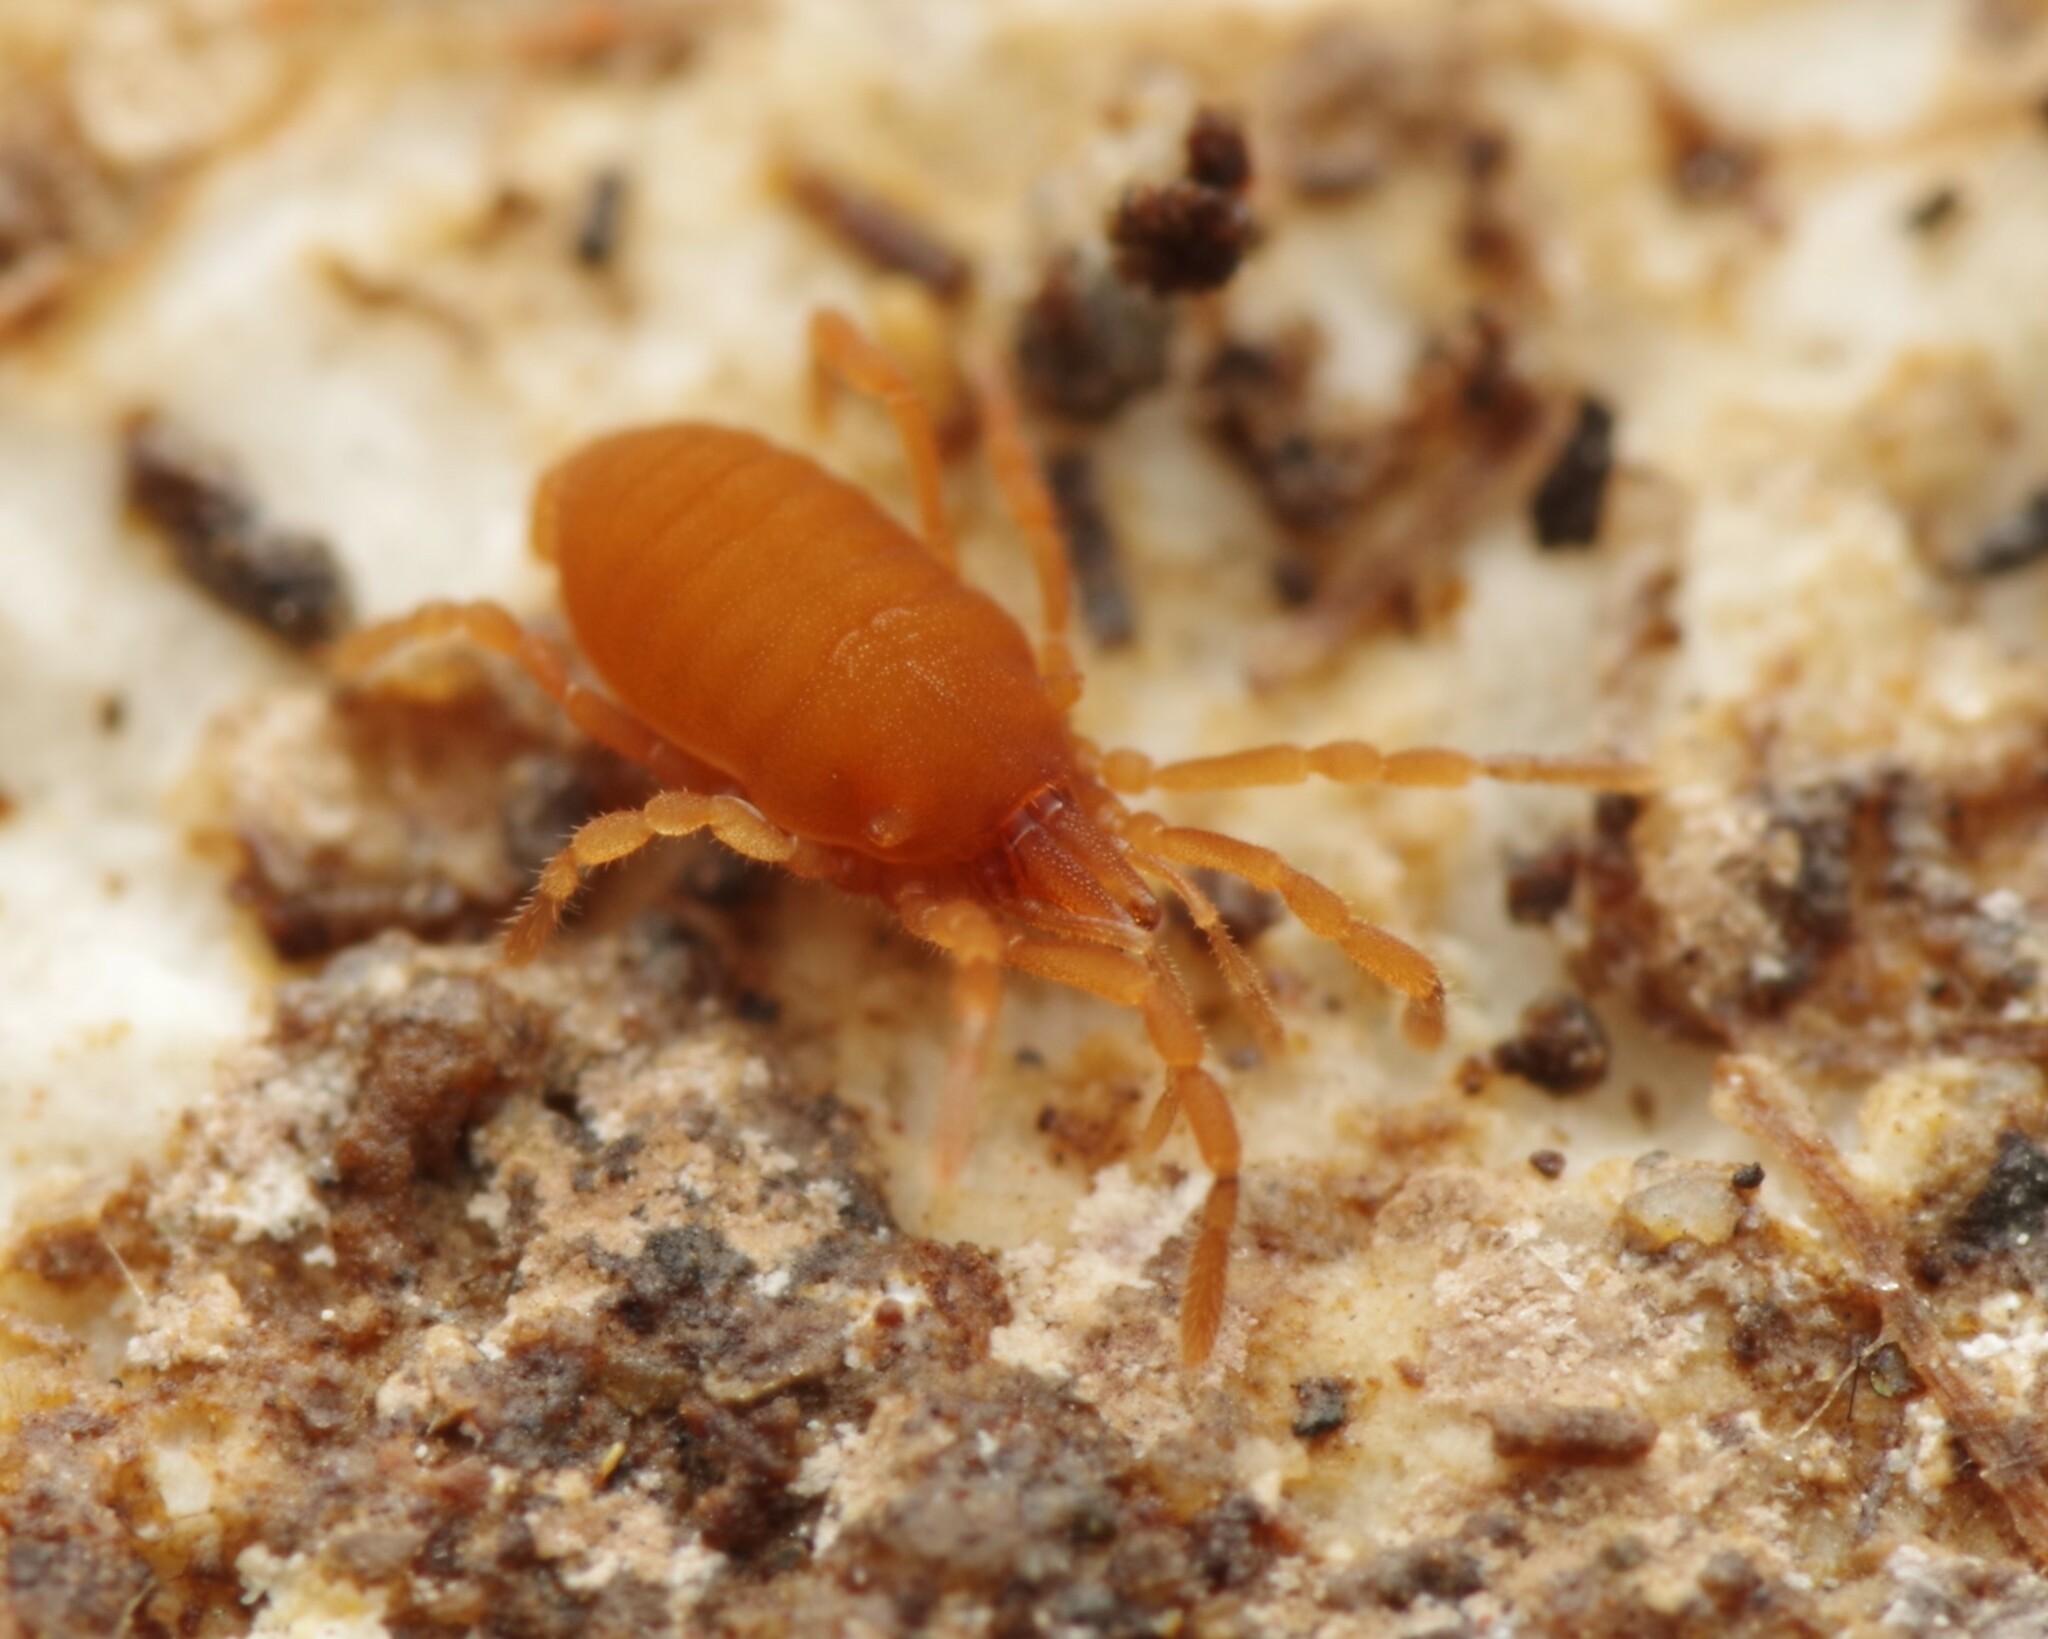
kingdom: Animalia
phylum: Arthropoda
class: Arachnida
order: Opiliones
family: Sironidae
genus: Siro
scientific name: Siro rubens
